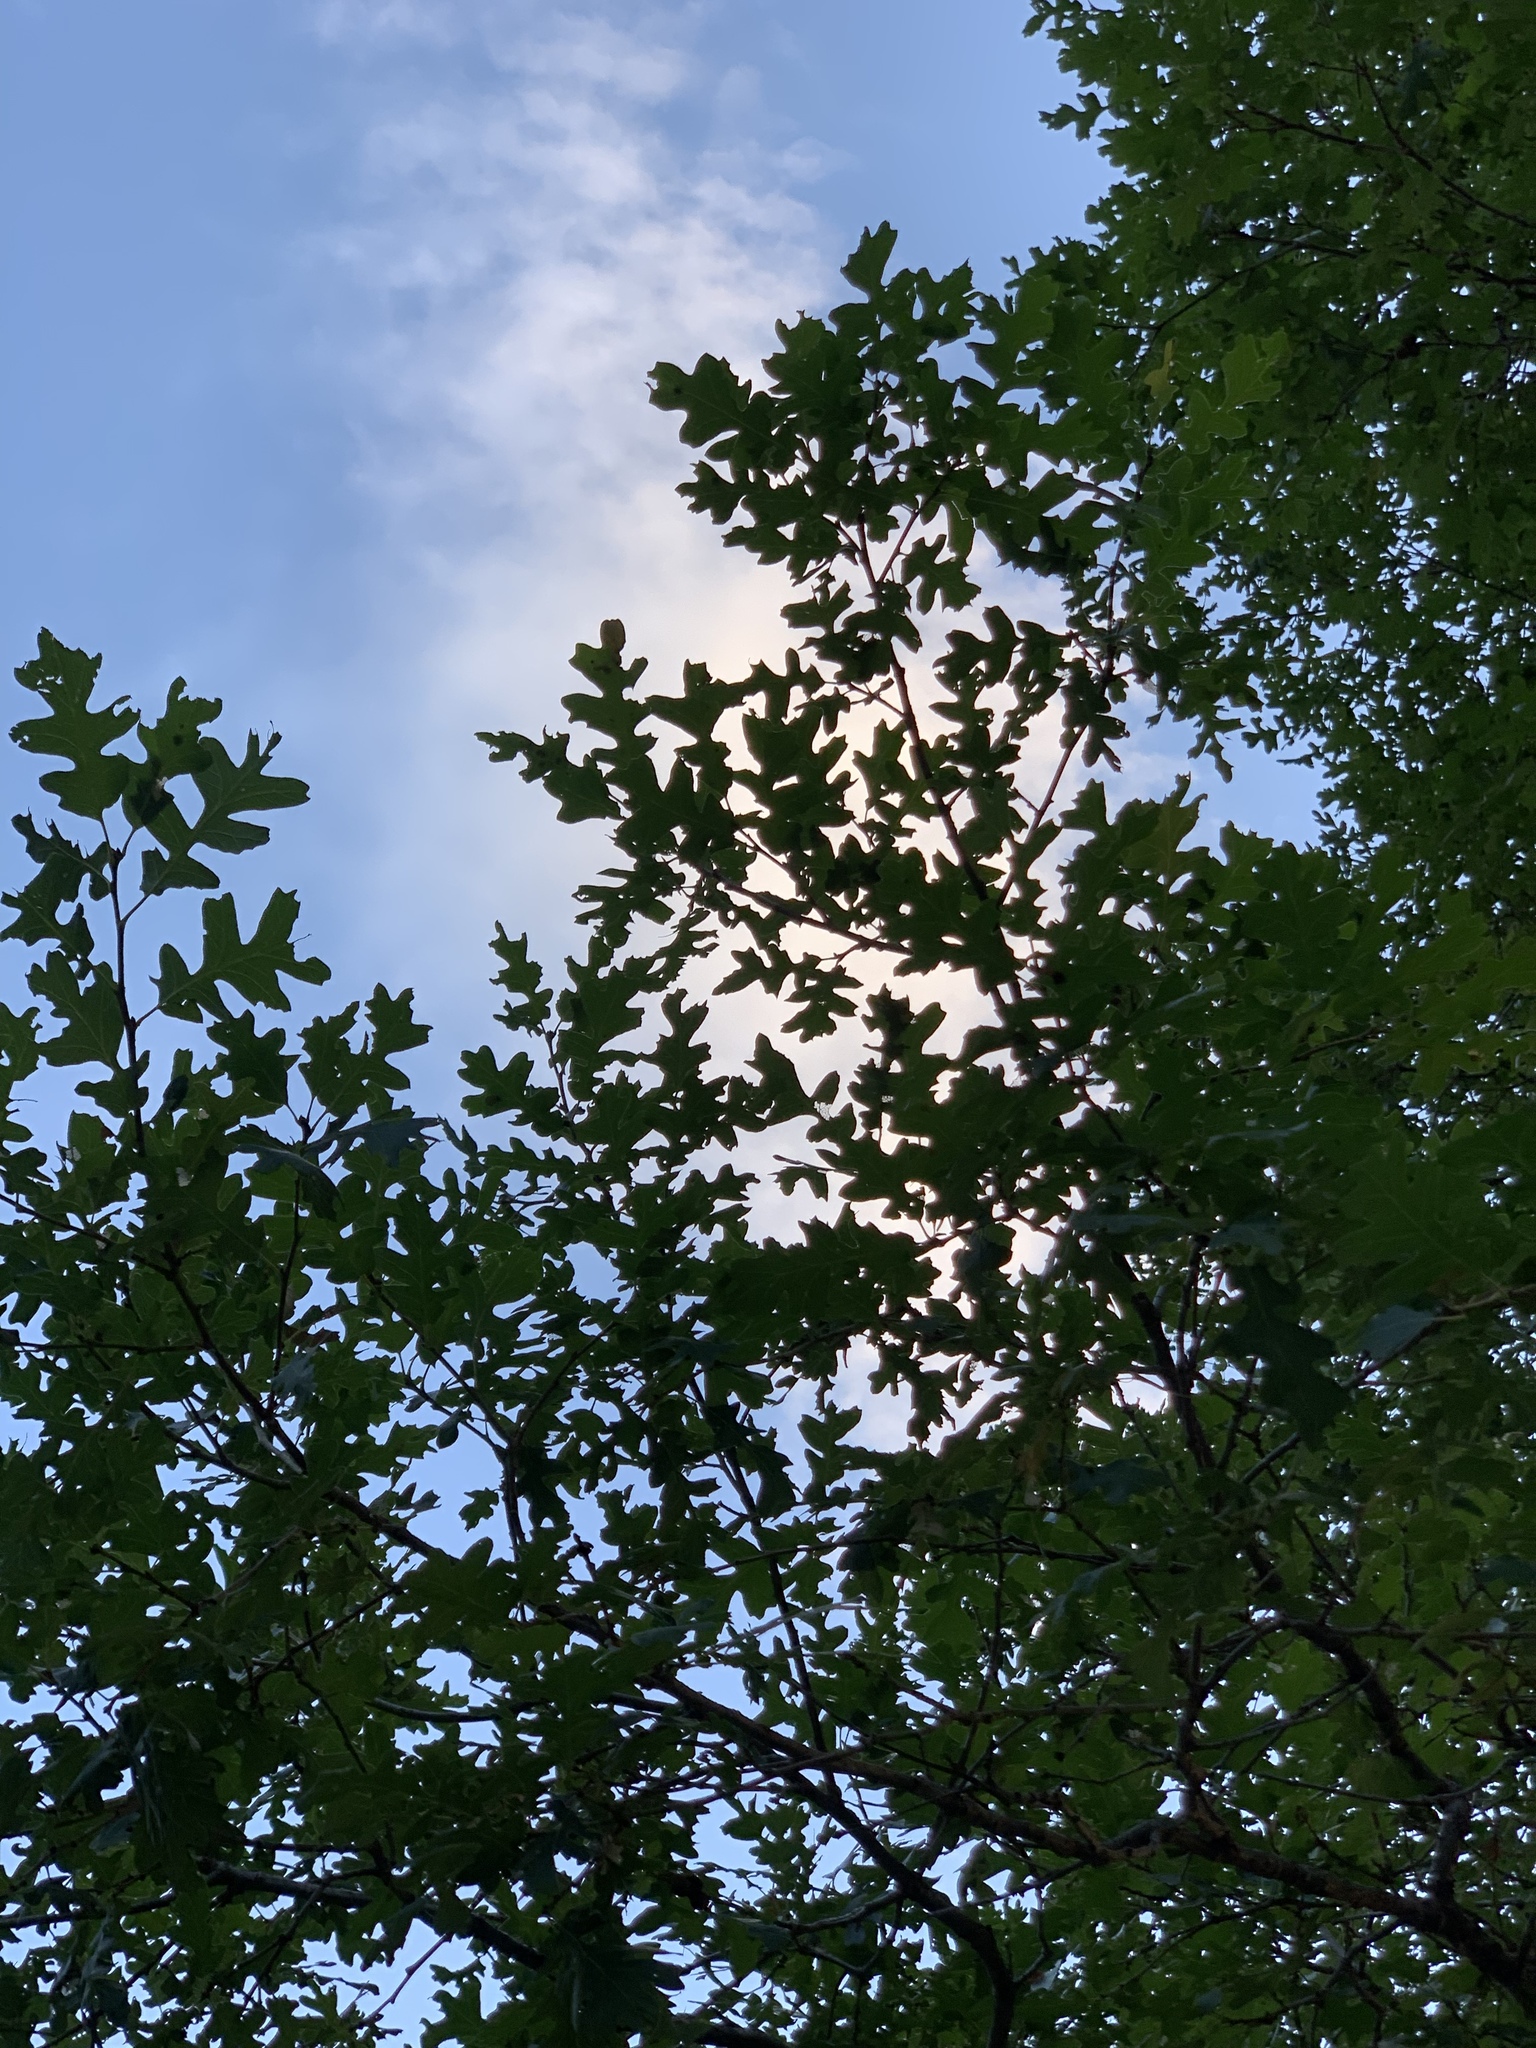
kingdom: Plantae
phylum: Tracheophyta
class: Magnoliopsida
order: Fagales
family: Fagaceae
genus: Quercus
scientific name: Quercus gambelii
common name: Gambel oak
